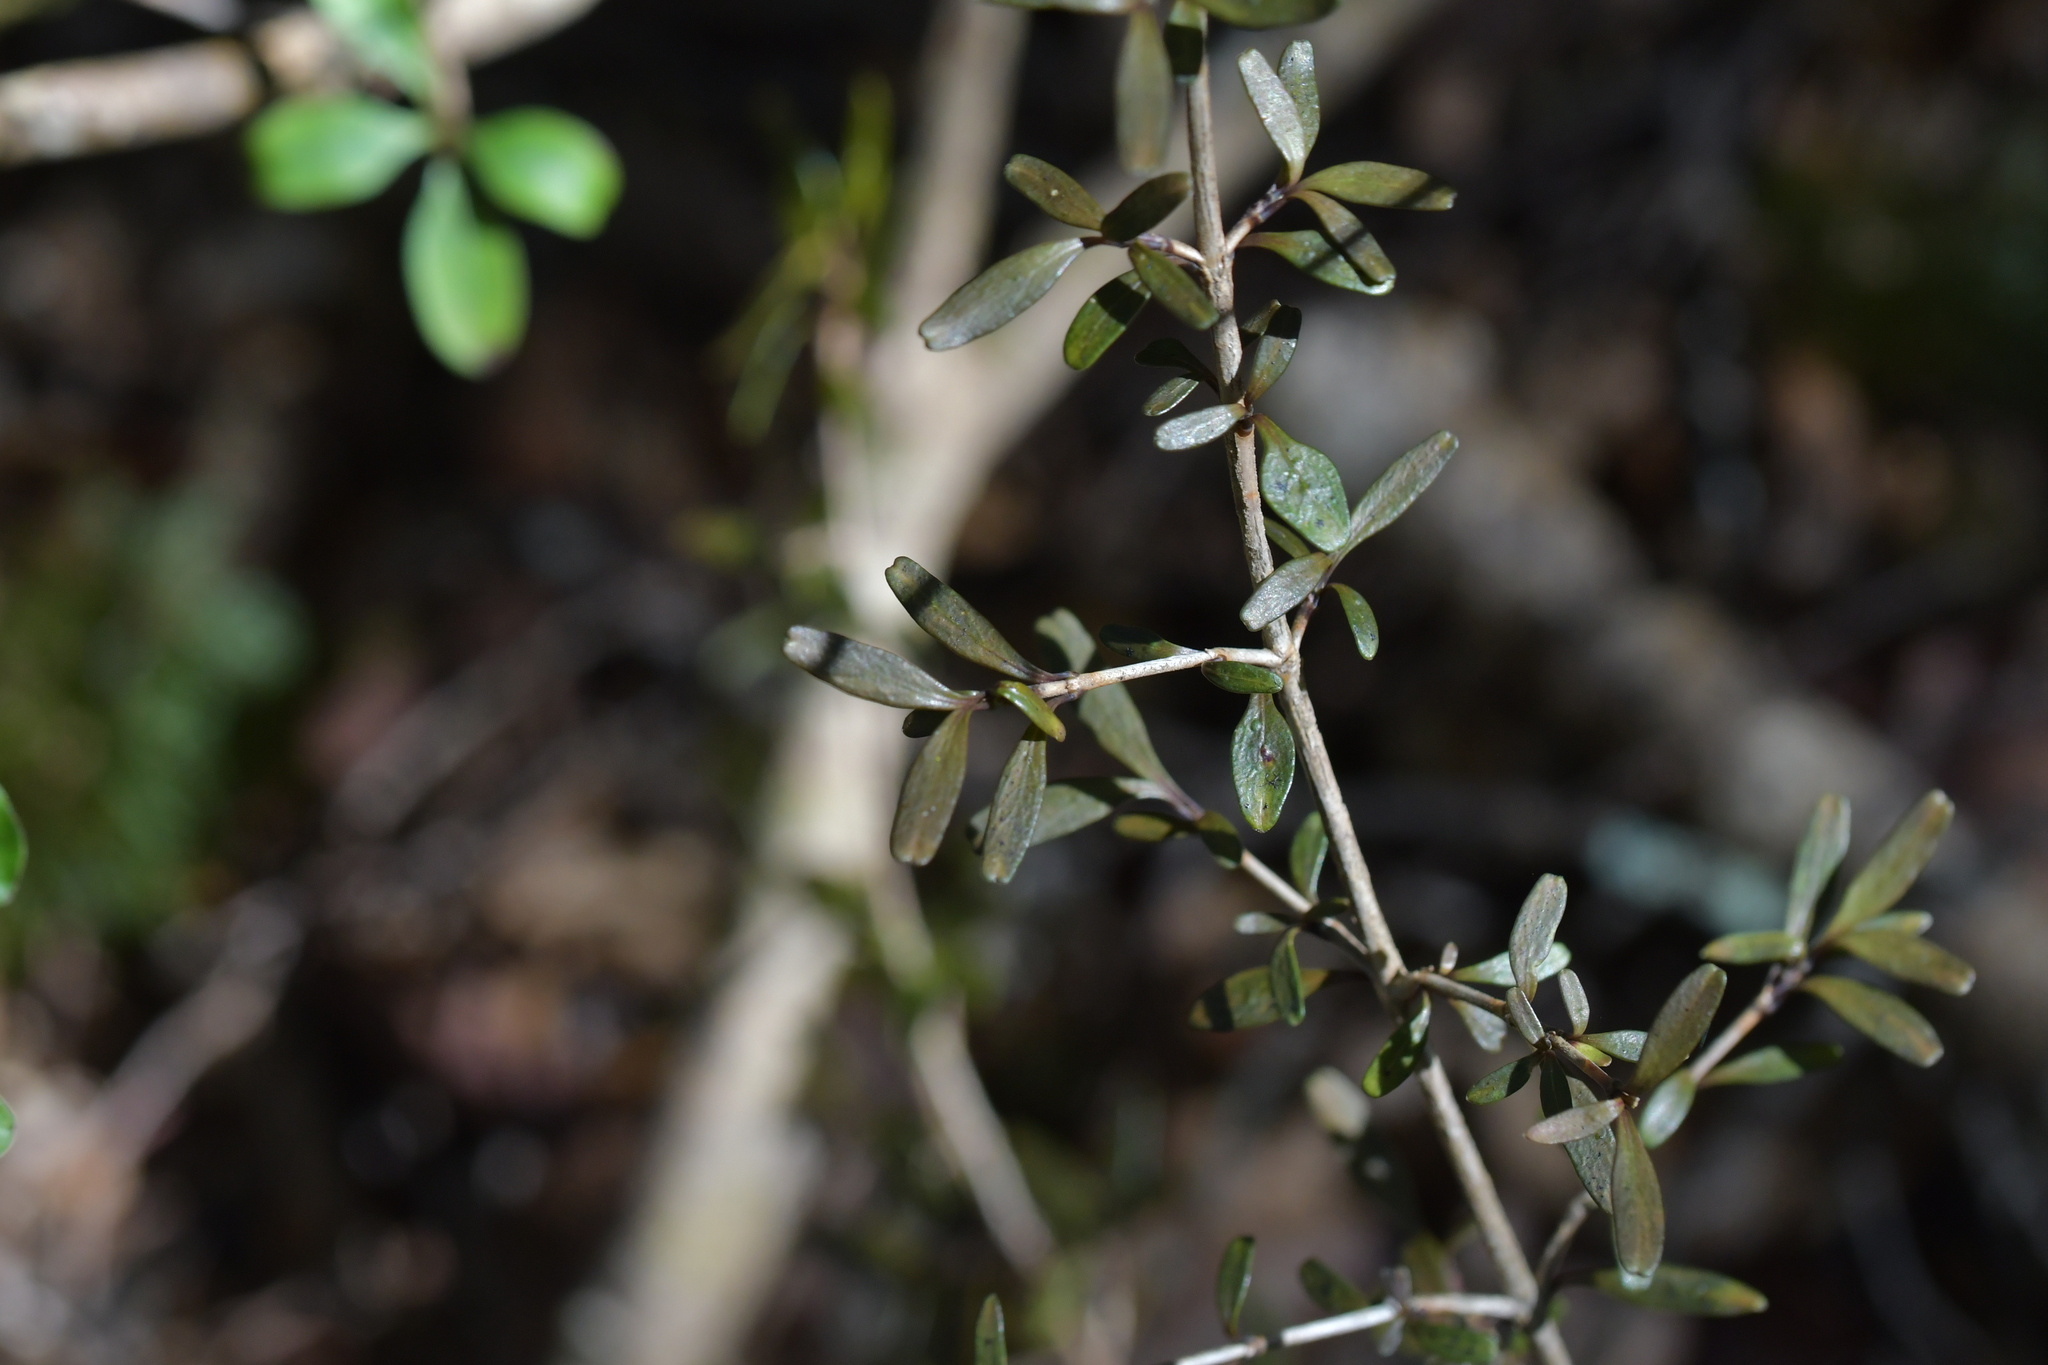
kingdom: Plantae
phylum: Tracheophyta
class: Magnoliopsida
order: Gentianales
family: Rubiaceae
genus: Coprosma
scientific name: Coprosma colensoi
